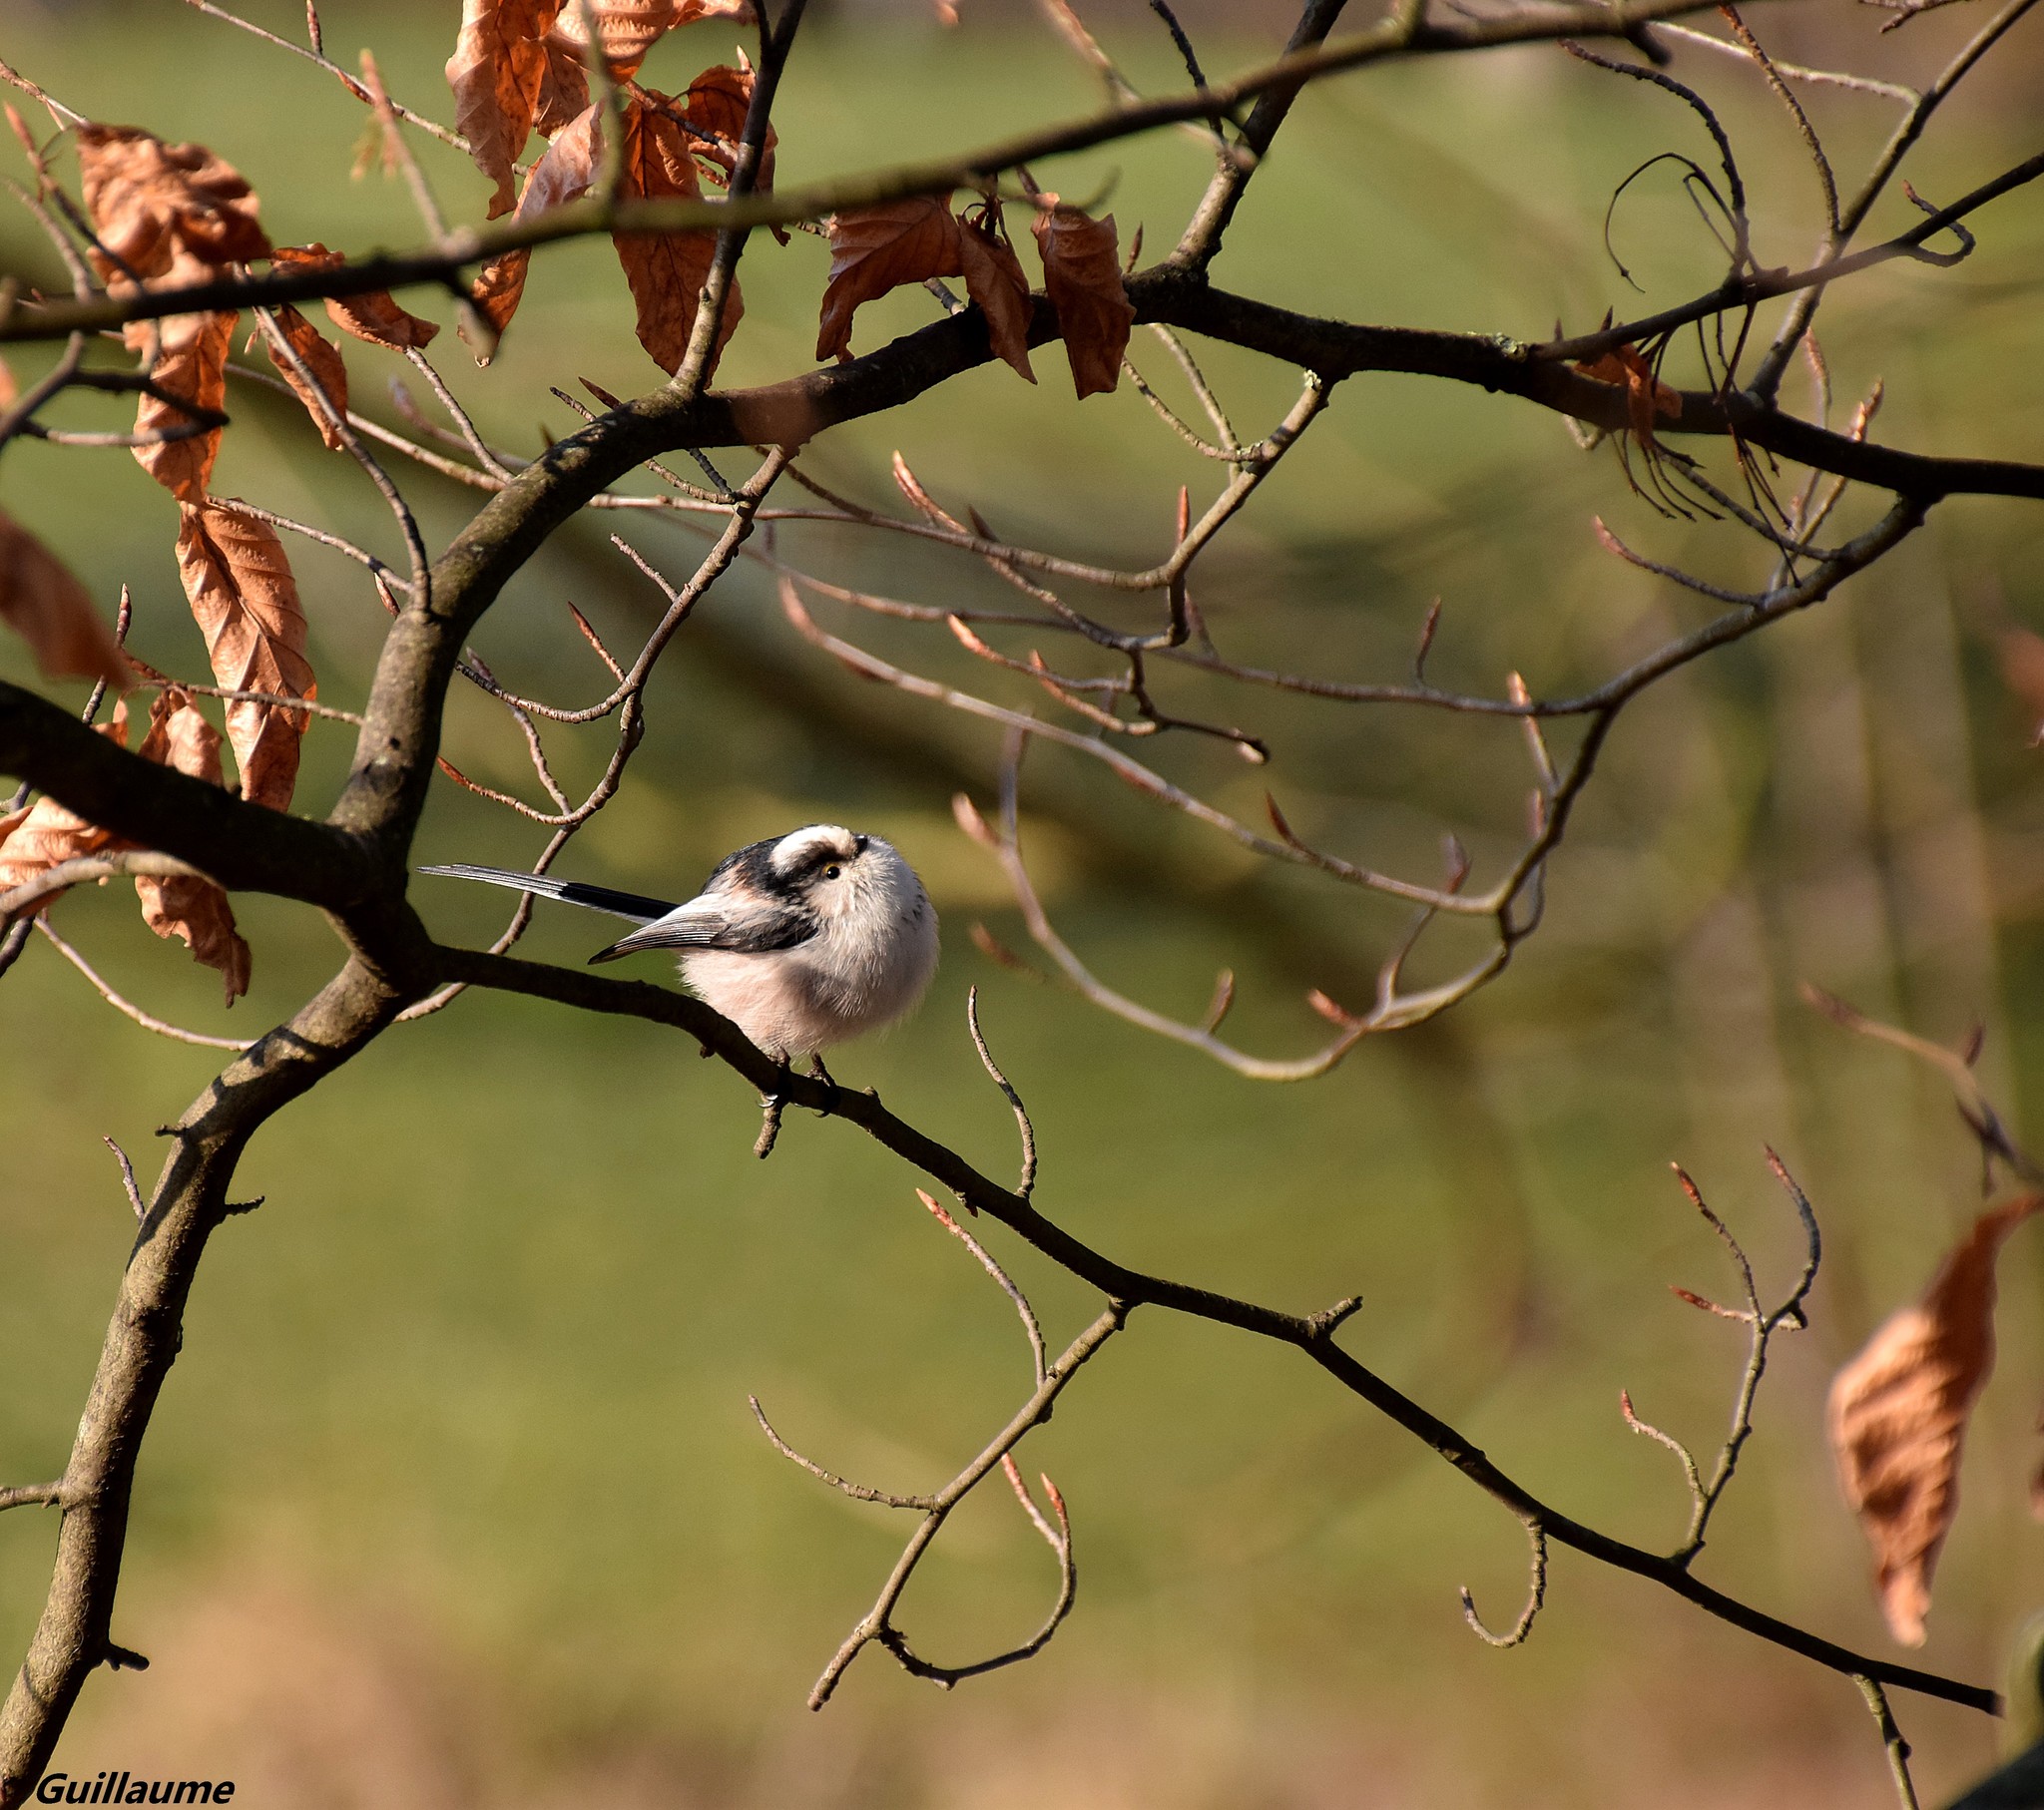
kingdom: Animalia
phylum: Chordata
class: Aves
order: Passeriformes
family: Aegithalidae
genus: Aegithalos
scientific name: Aegithalos caudatus
